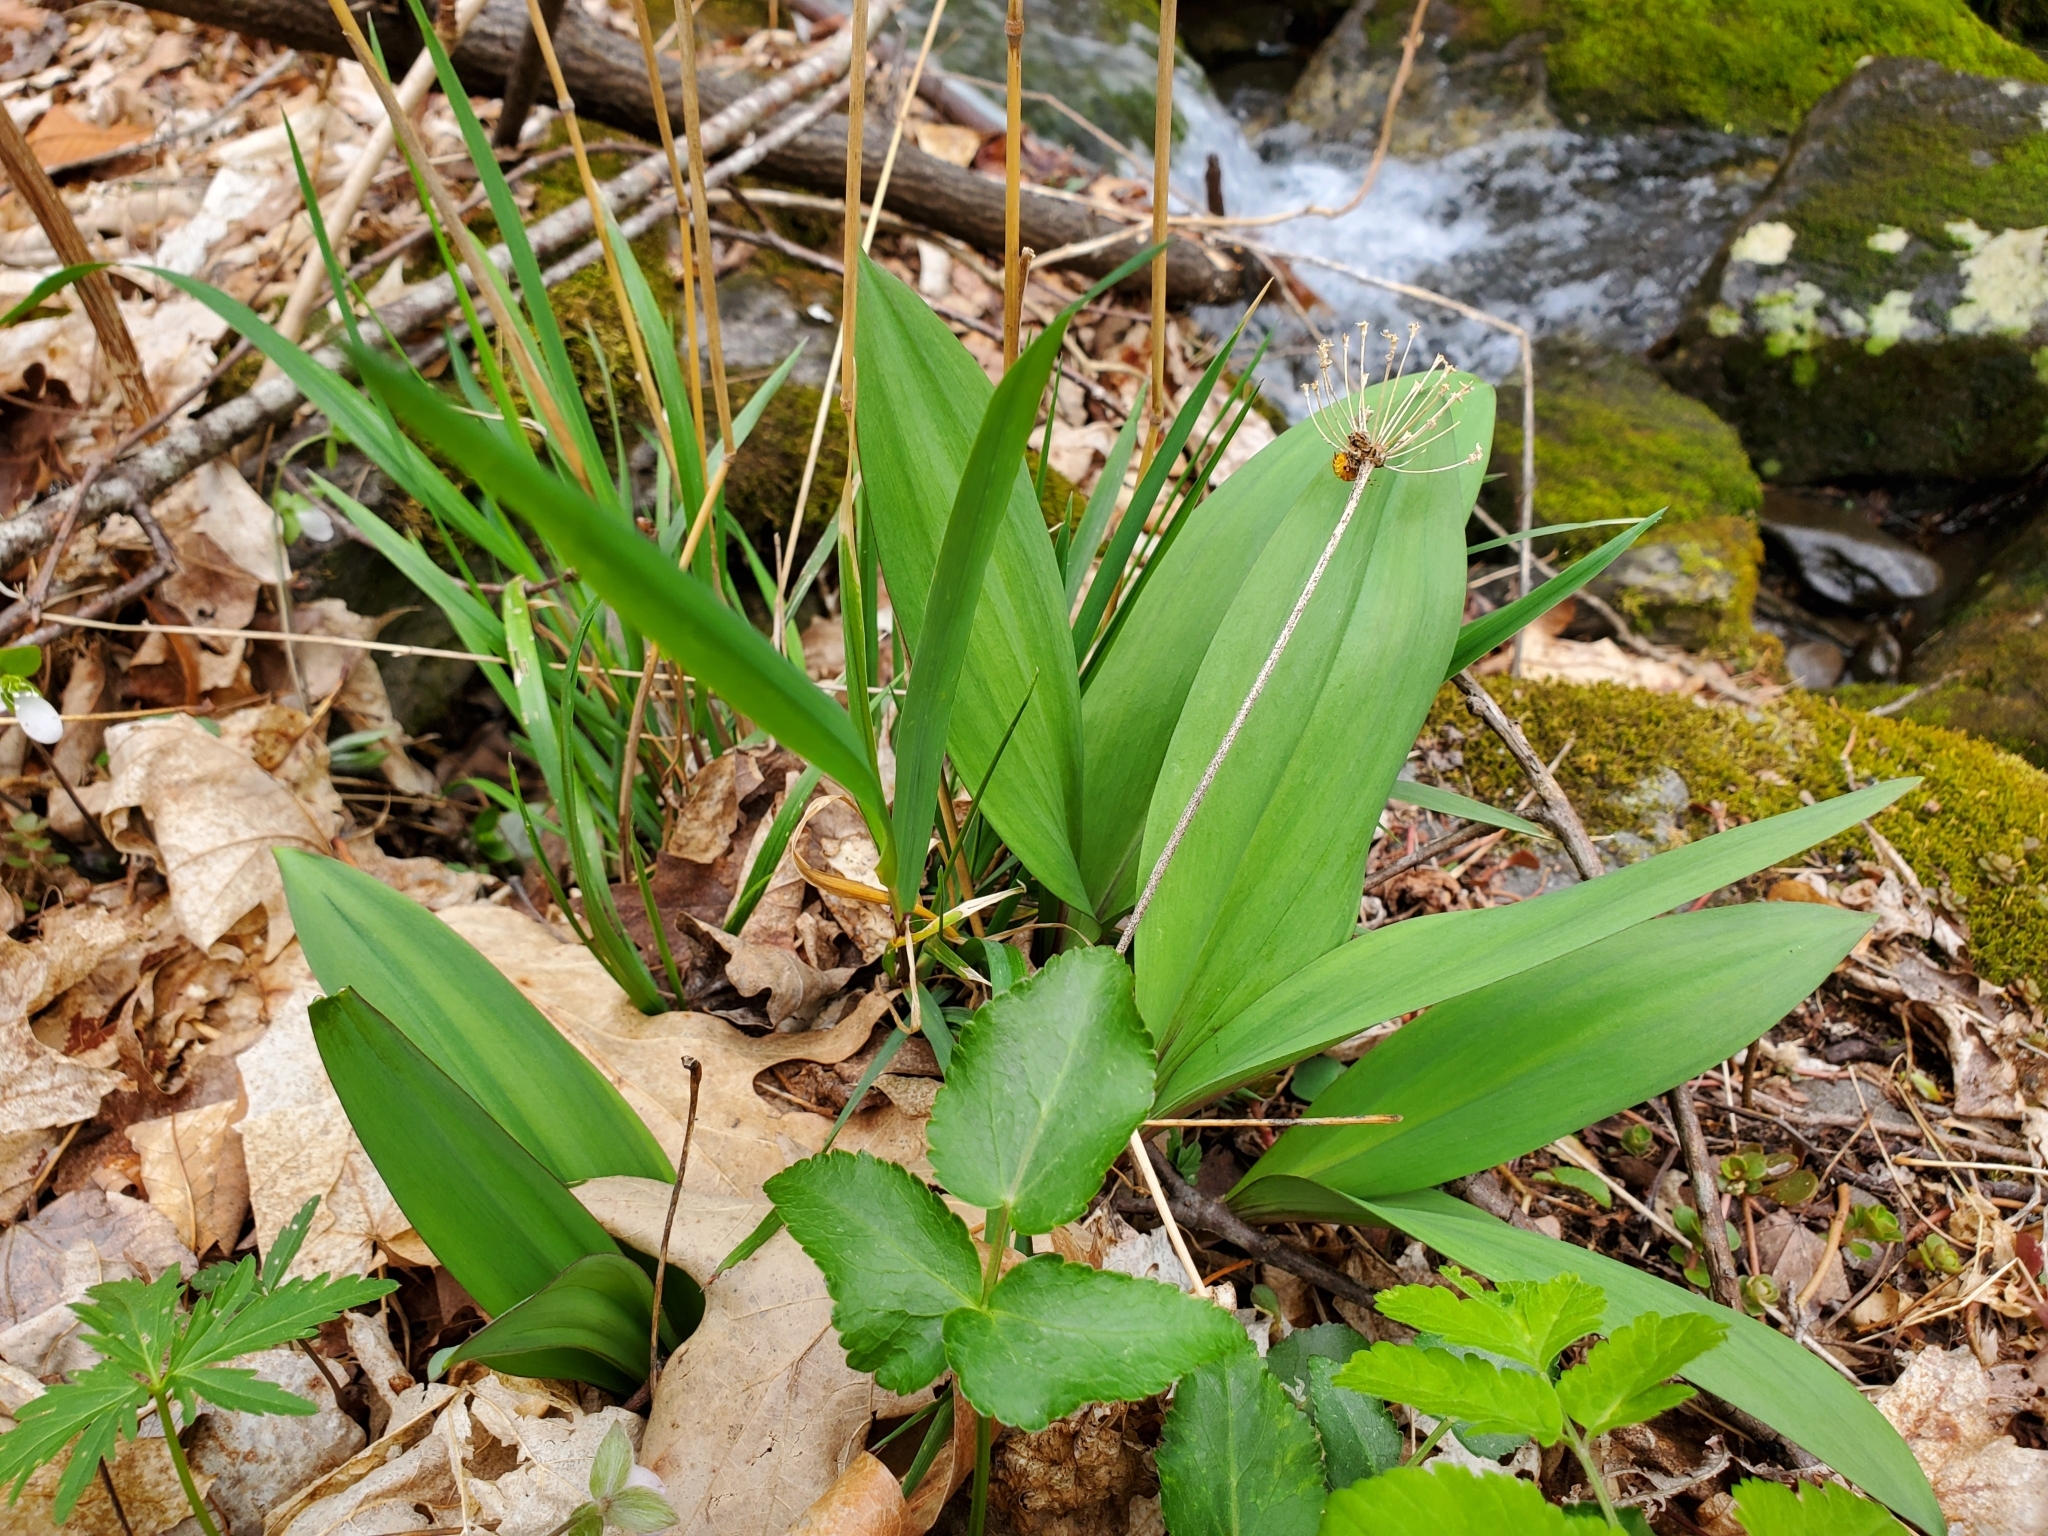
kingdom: Plantae
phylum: Tracheophyta
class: Liliopsida
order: Asparagales
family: Amaryllidaceae
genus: Allium
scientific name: Allium tricoccum
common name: Ramp
